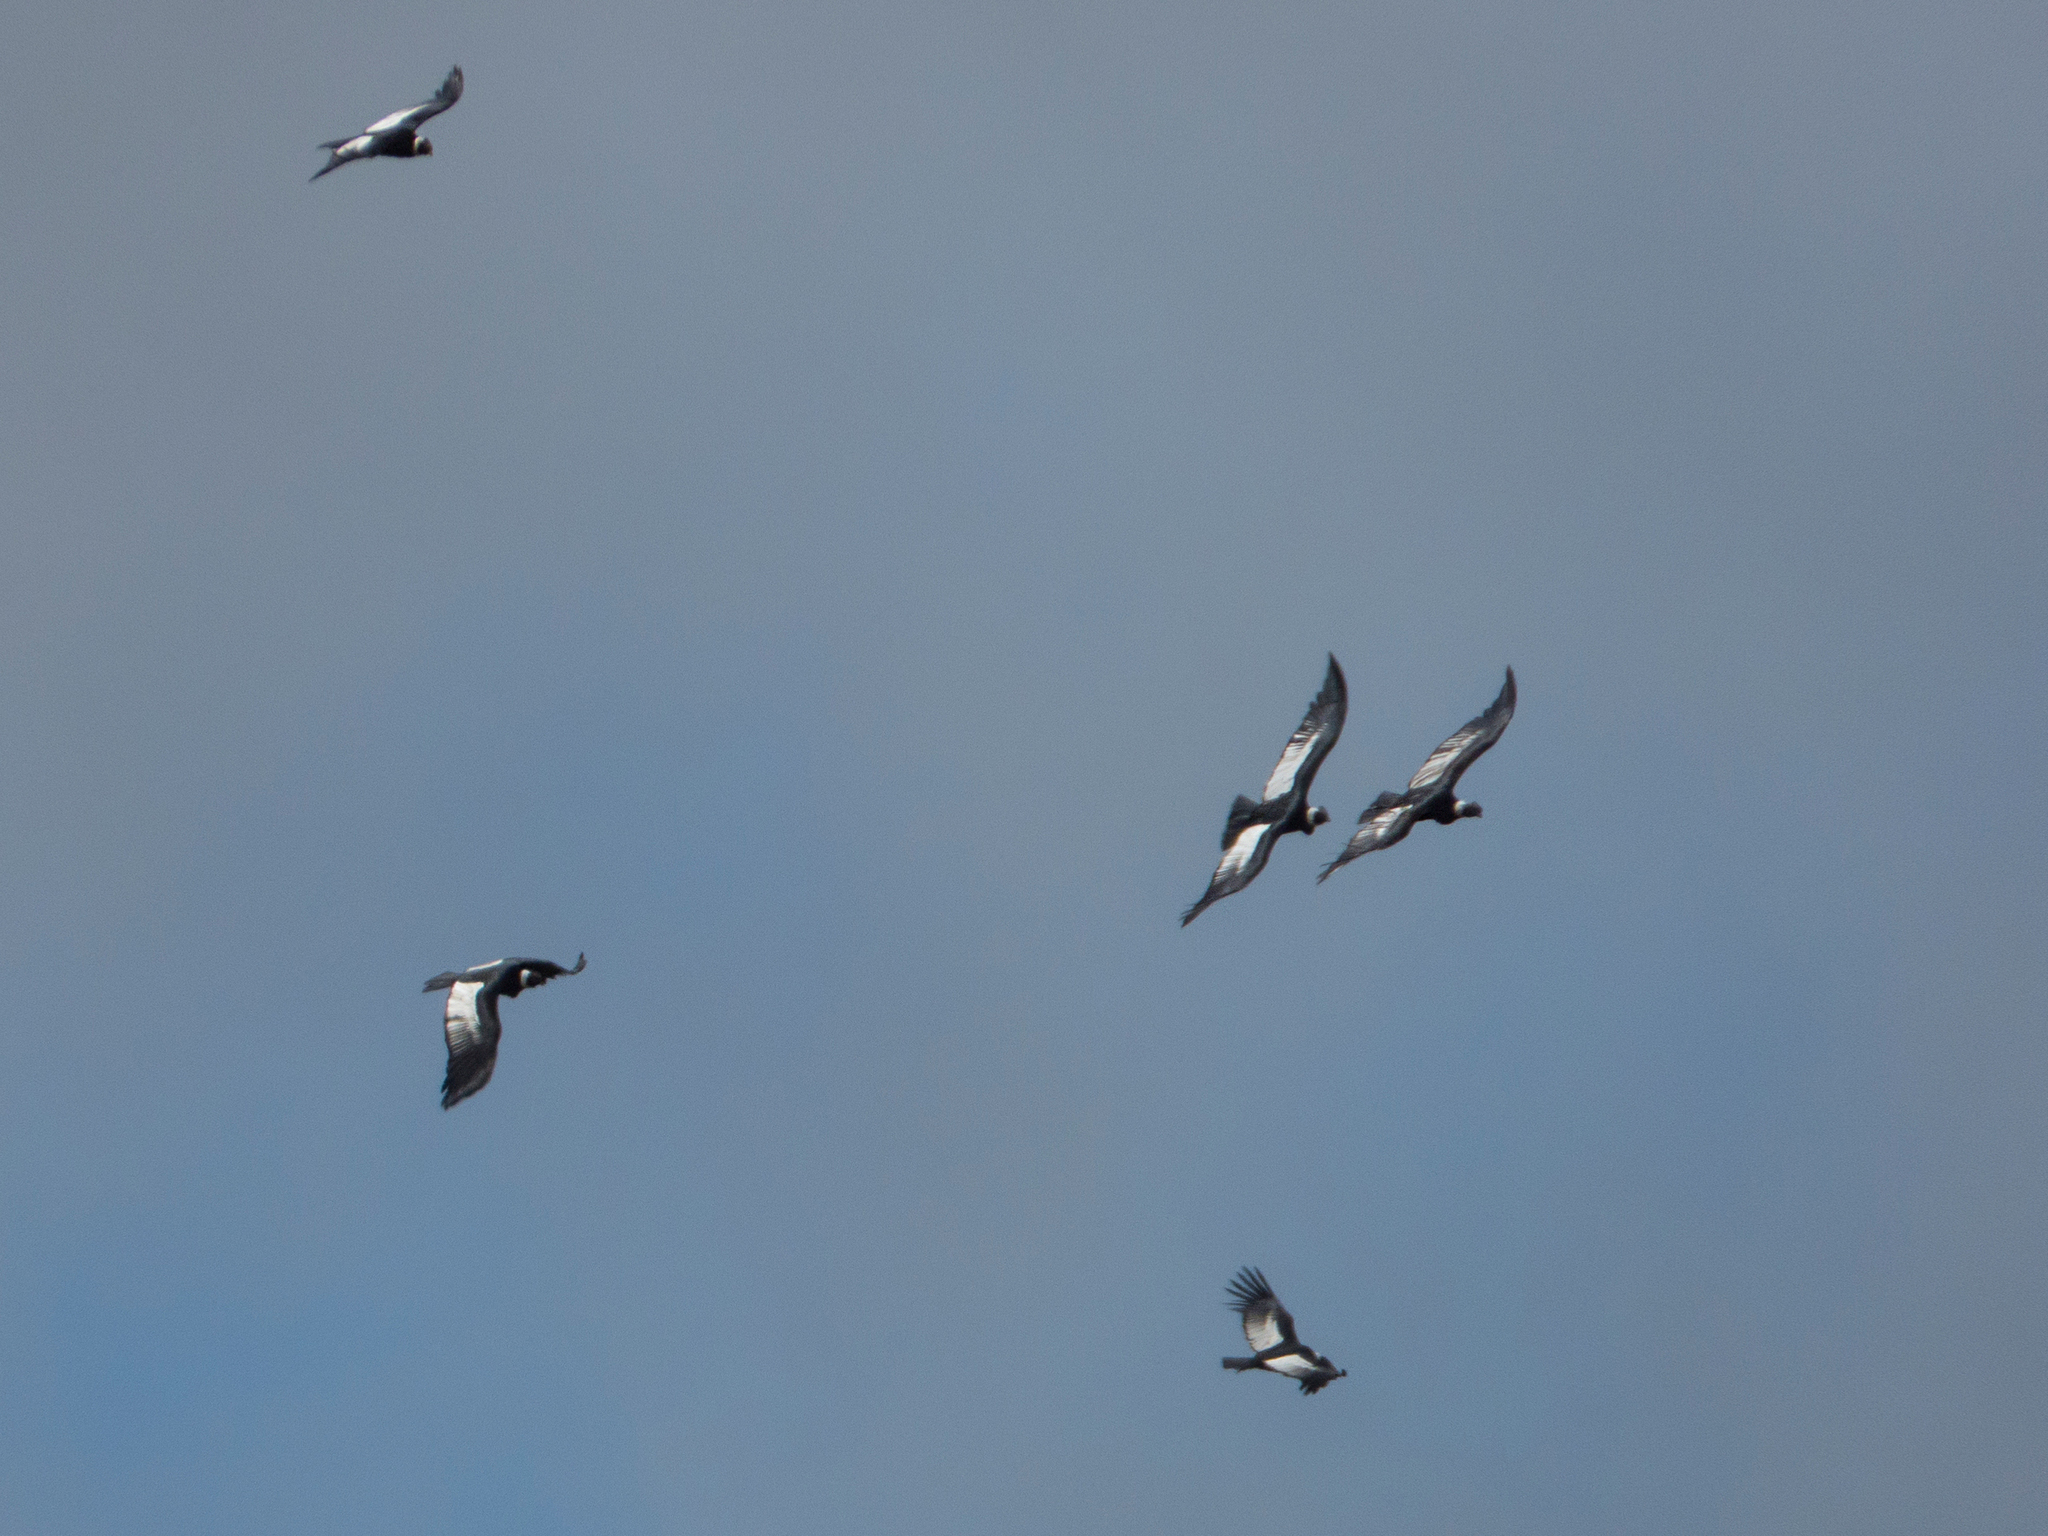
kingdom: Animalia
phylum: Chordata
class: Aves
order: Accipitriformes
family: Cathartidae
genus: Vultur
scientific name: Vultur gryphus
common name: Andean condor
